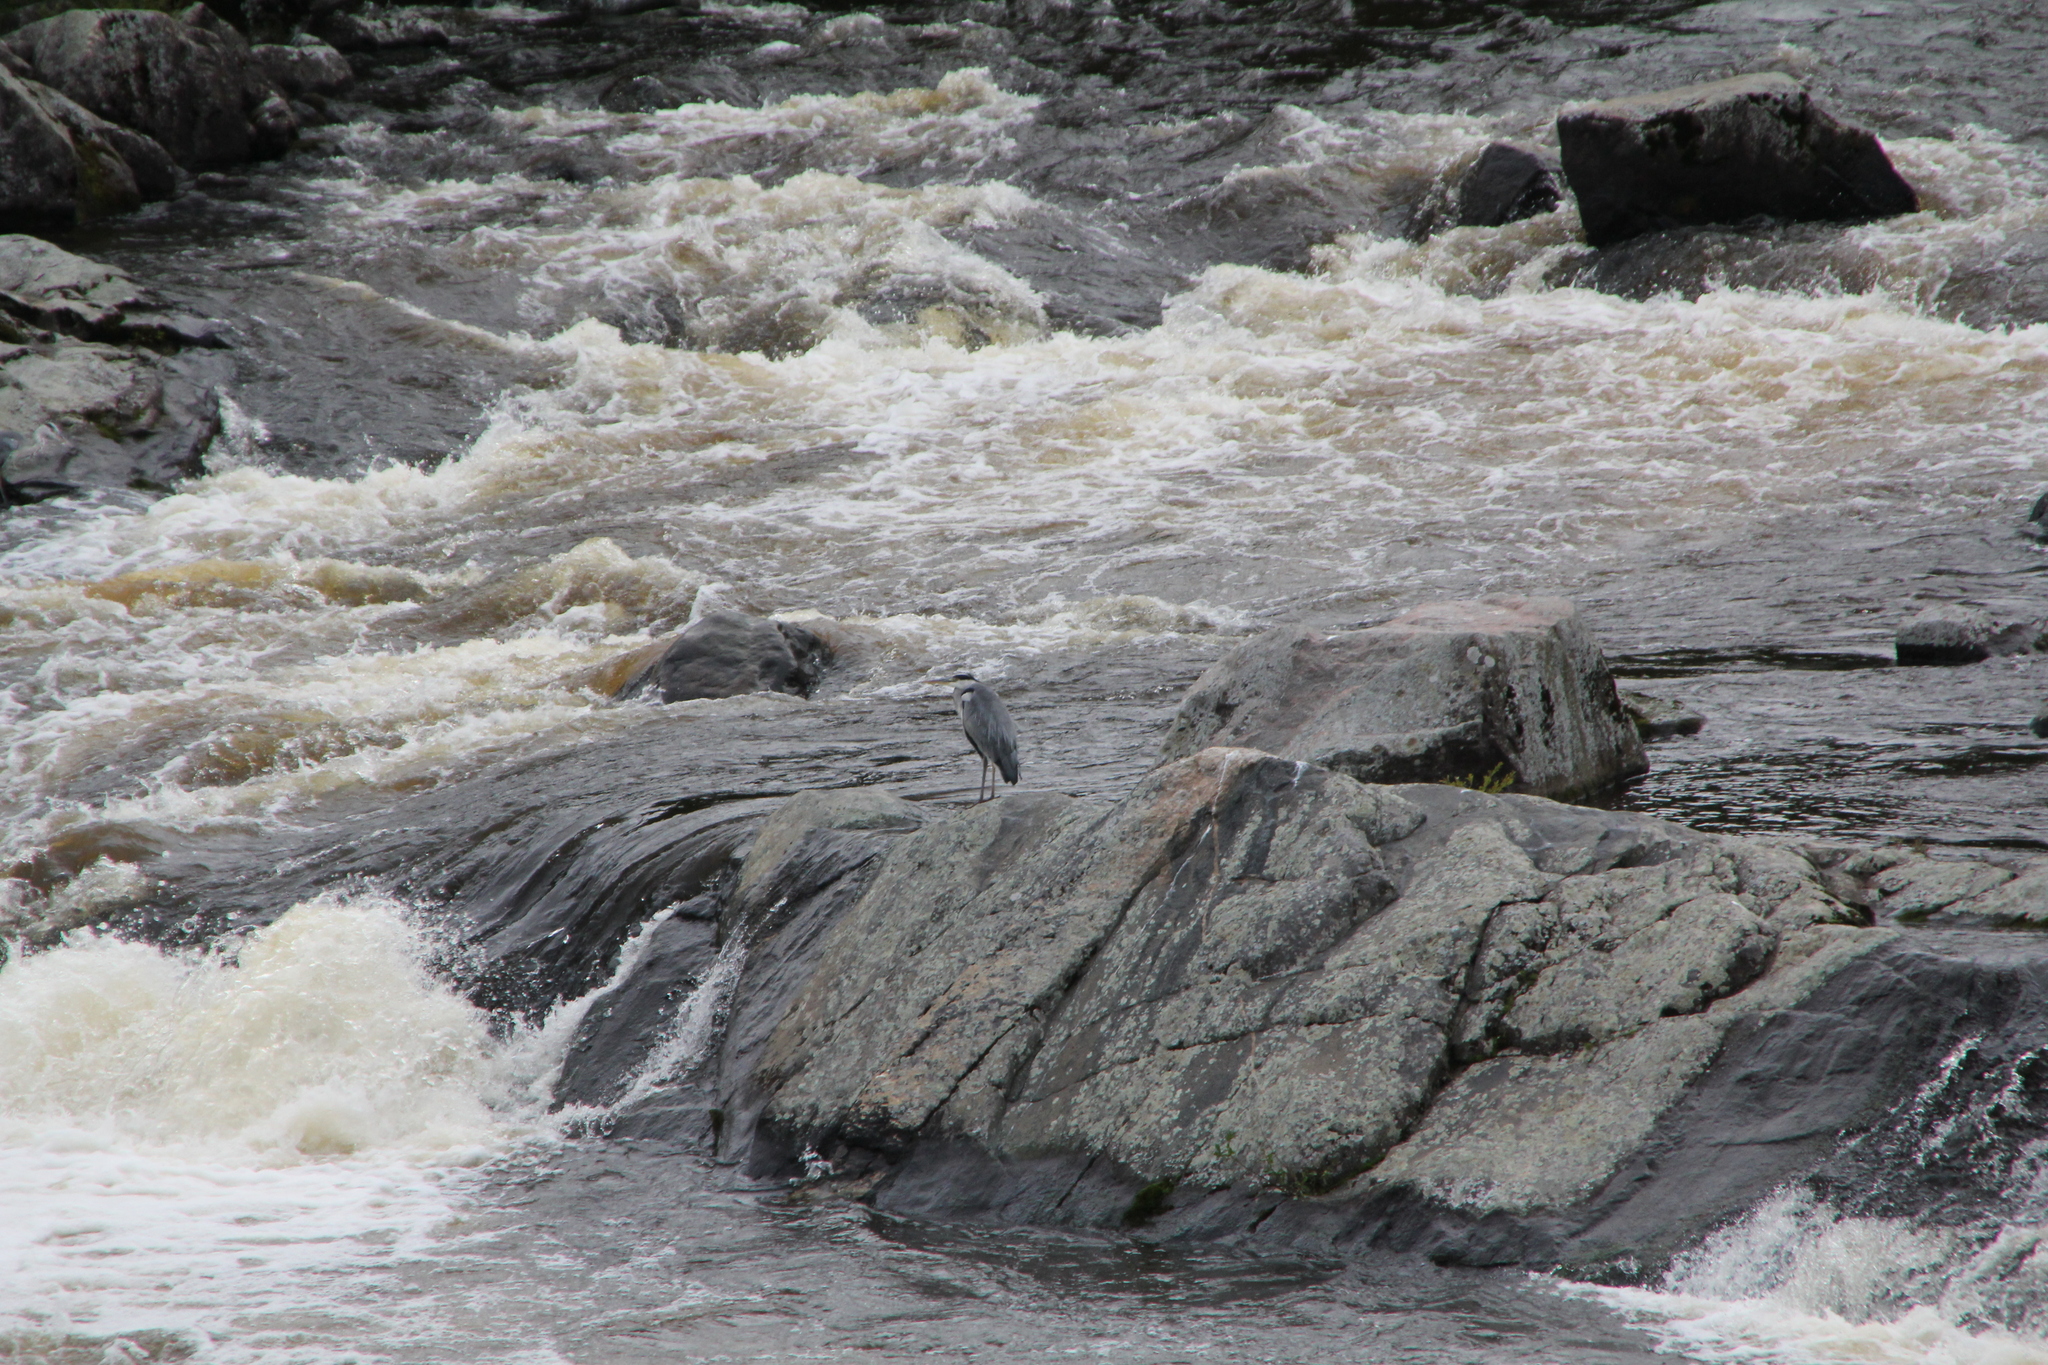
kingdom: Animalia
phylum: Chordata
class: Aves
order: Pelecaniformes
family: Ardeidae
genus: Ardea
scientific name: Ardea cinerea
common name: Grey heron
